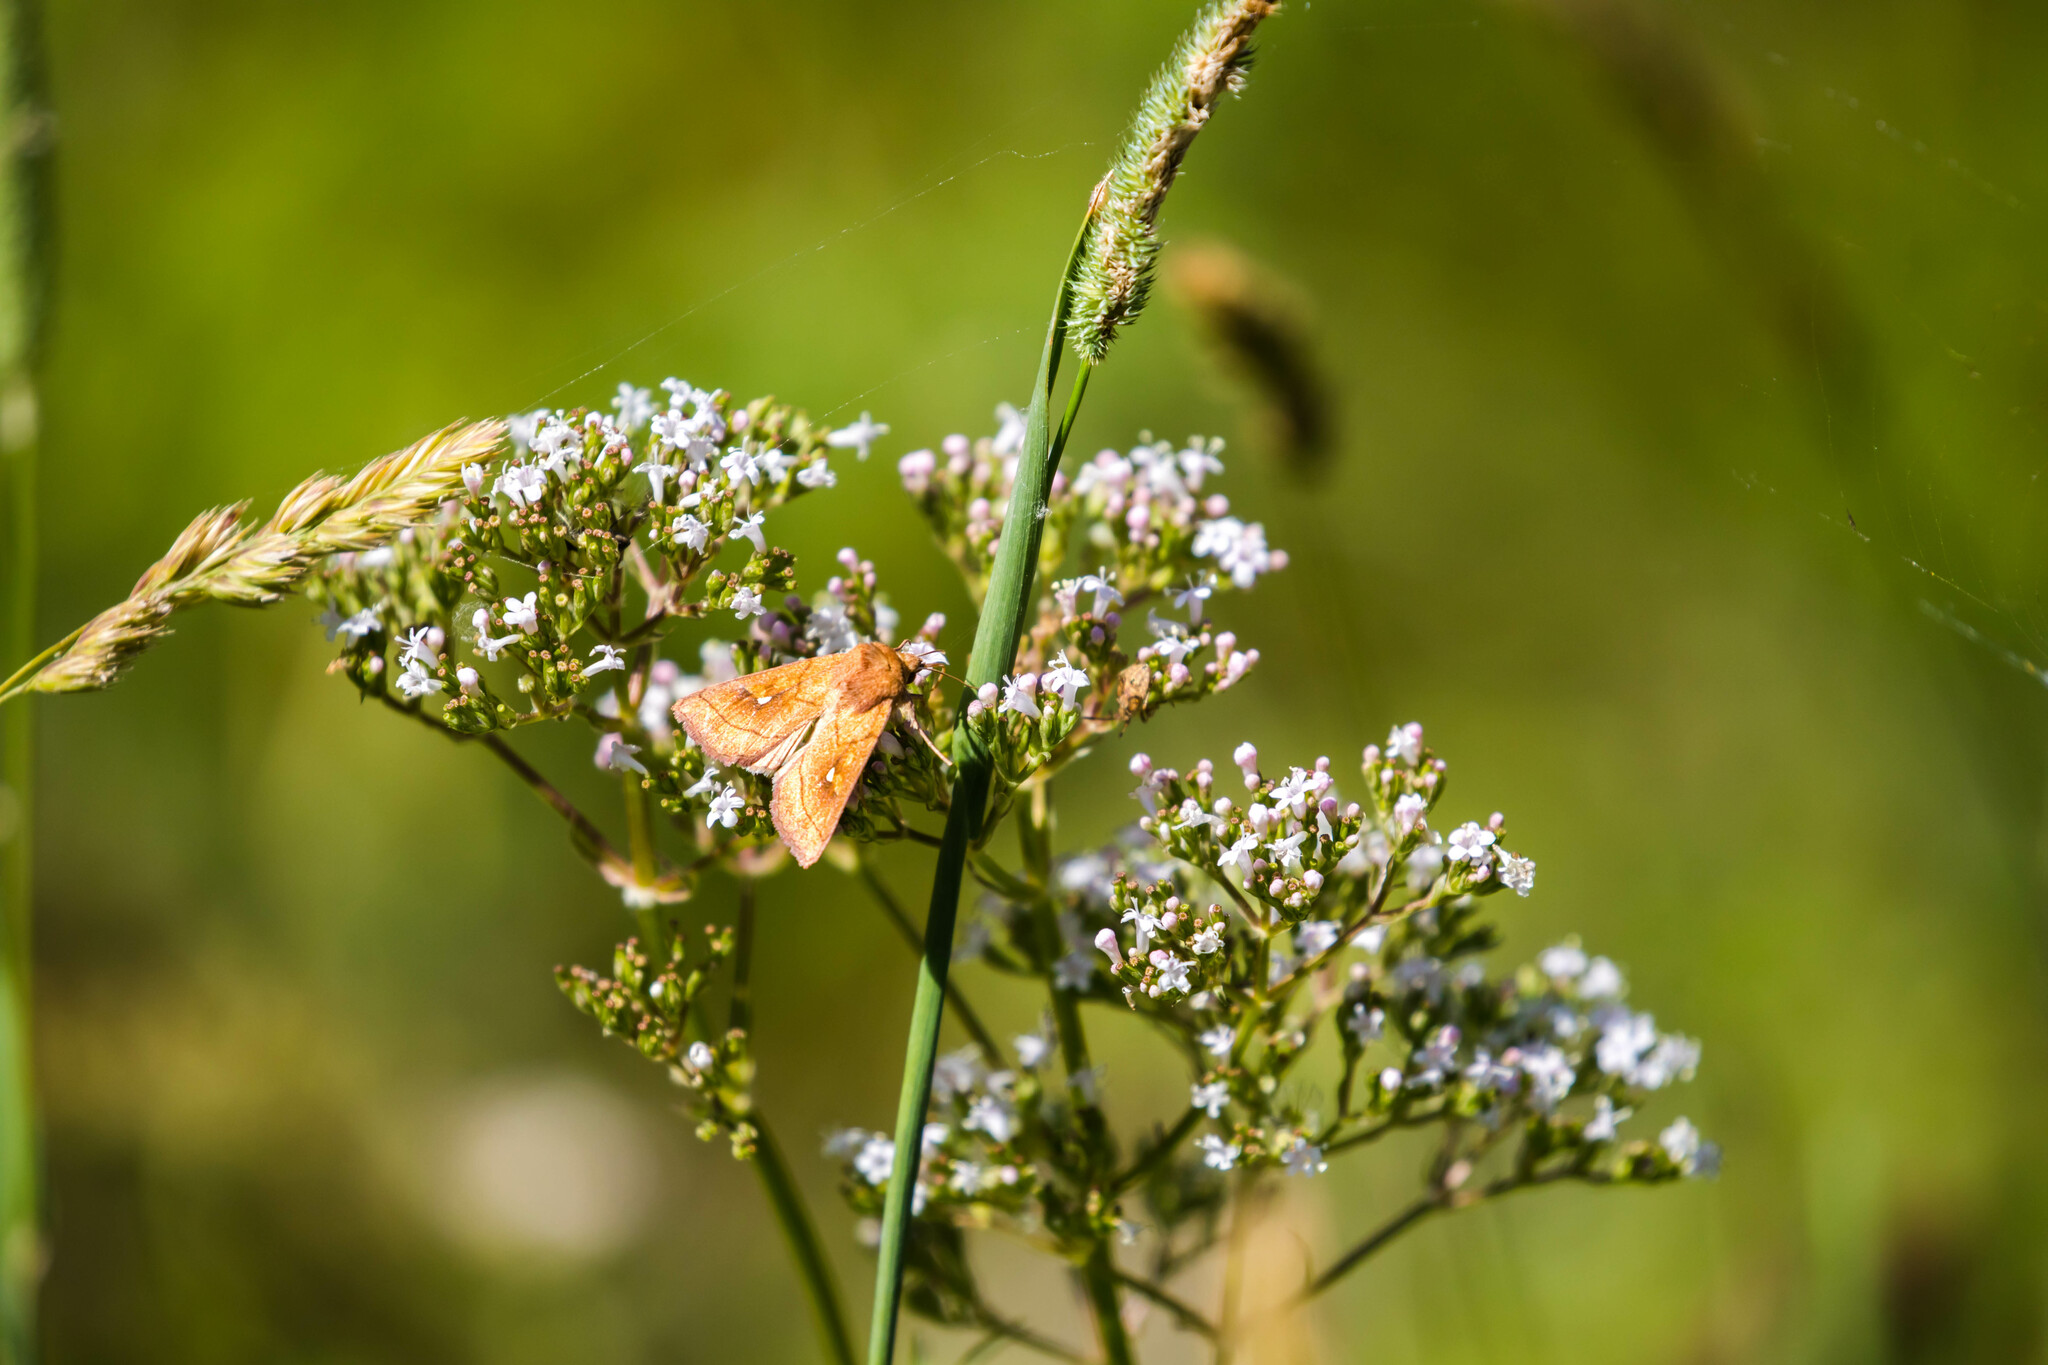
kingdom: Animalia
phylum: Arthropoda
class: Insecta
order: Lepidoptera
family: Noctuidae
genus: Mythimna
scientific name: Mythimna conigera
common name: Brown-line bright-eye
